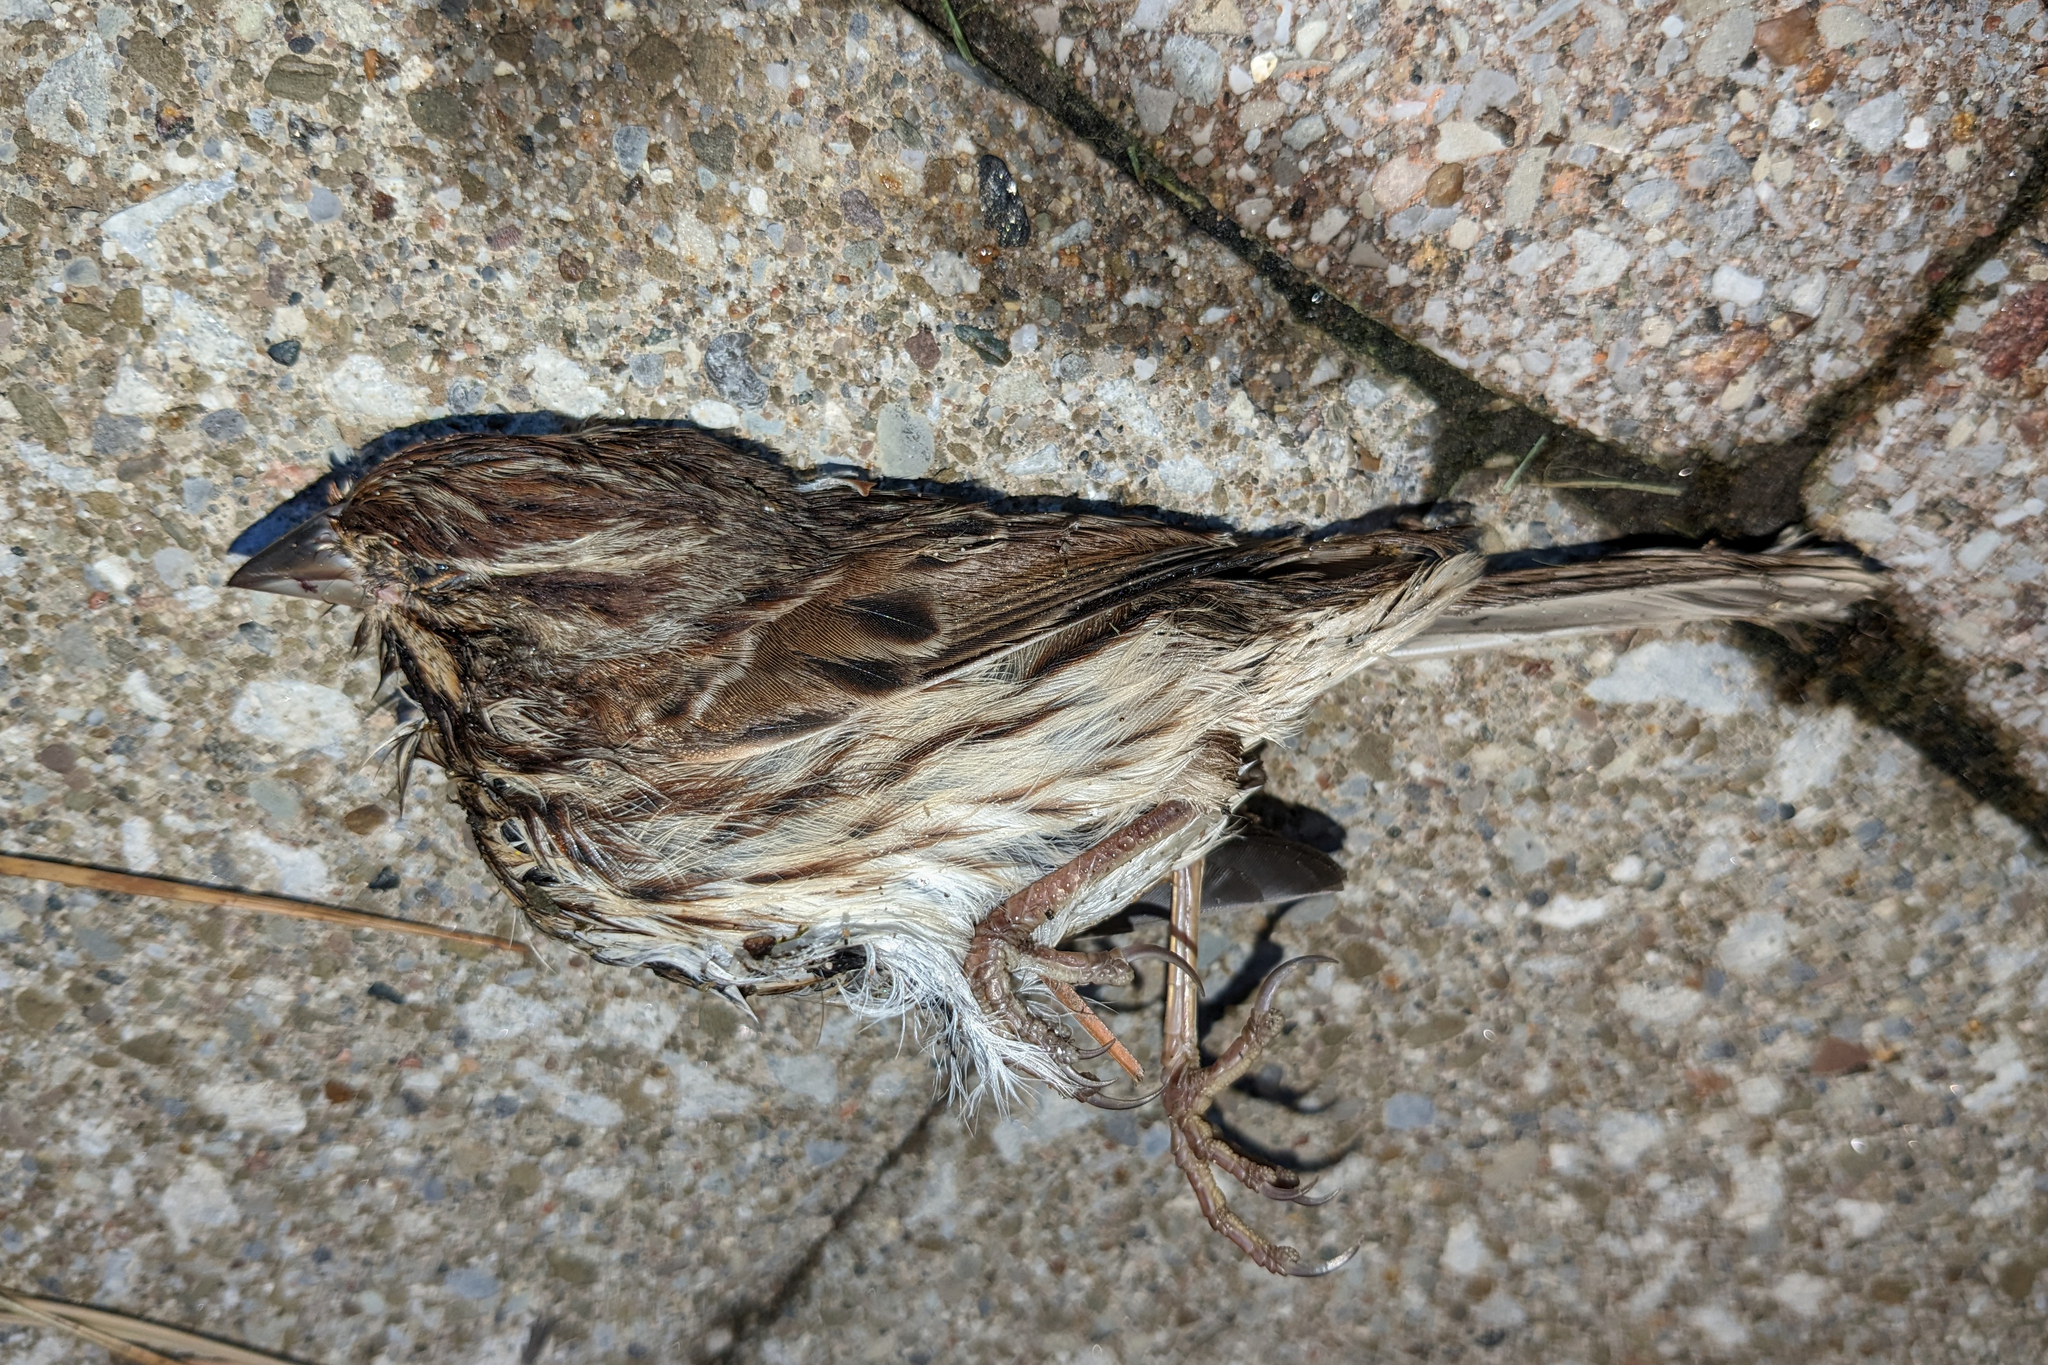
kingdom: Animalia
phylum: Chordata
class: Aves
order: Passeriformes
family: Passerellidae
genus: Melospiza
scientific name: Melospiza melodia
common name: Song sparrow
